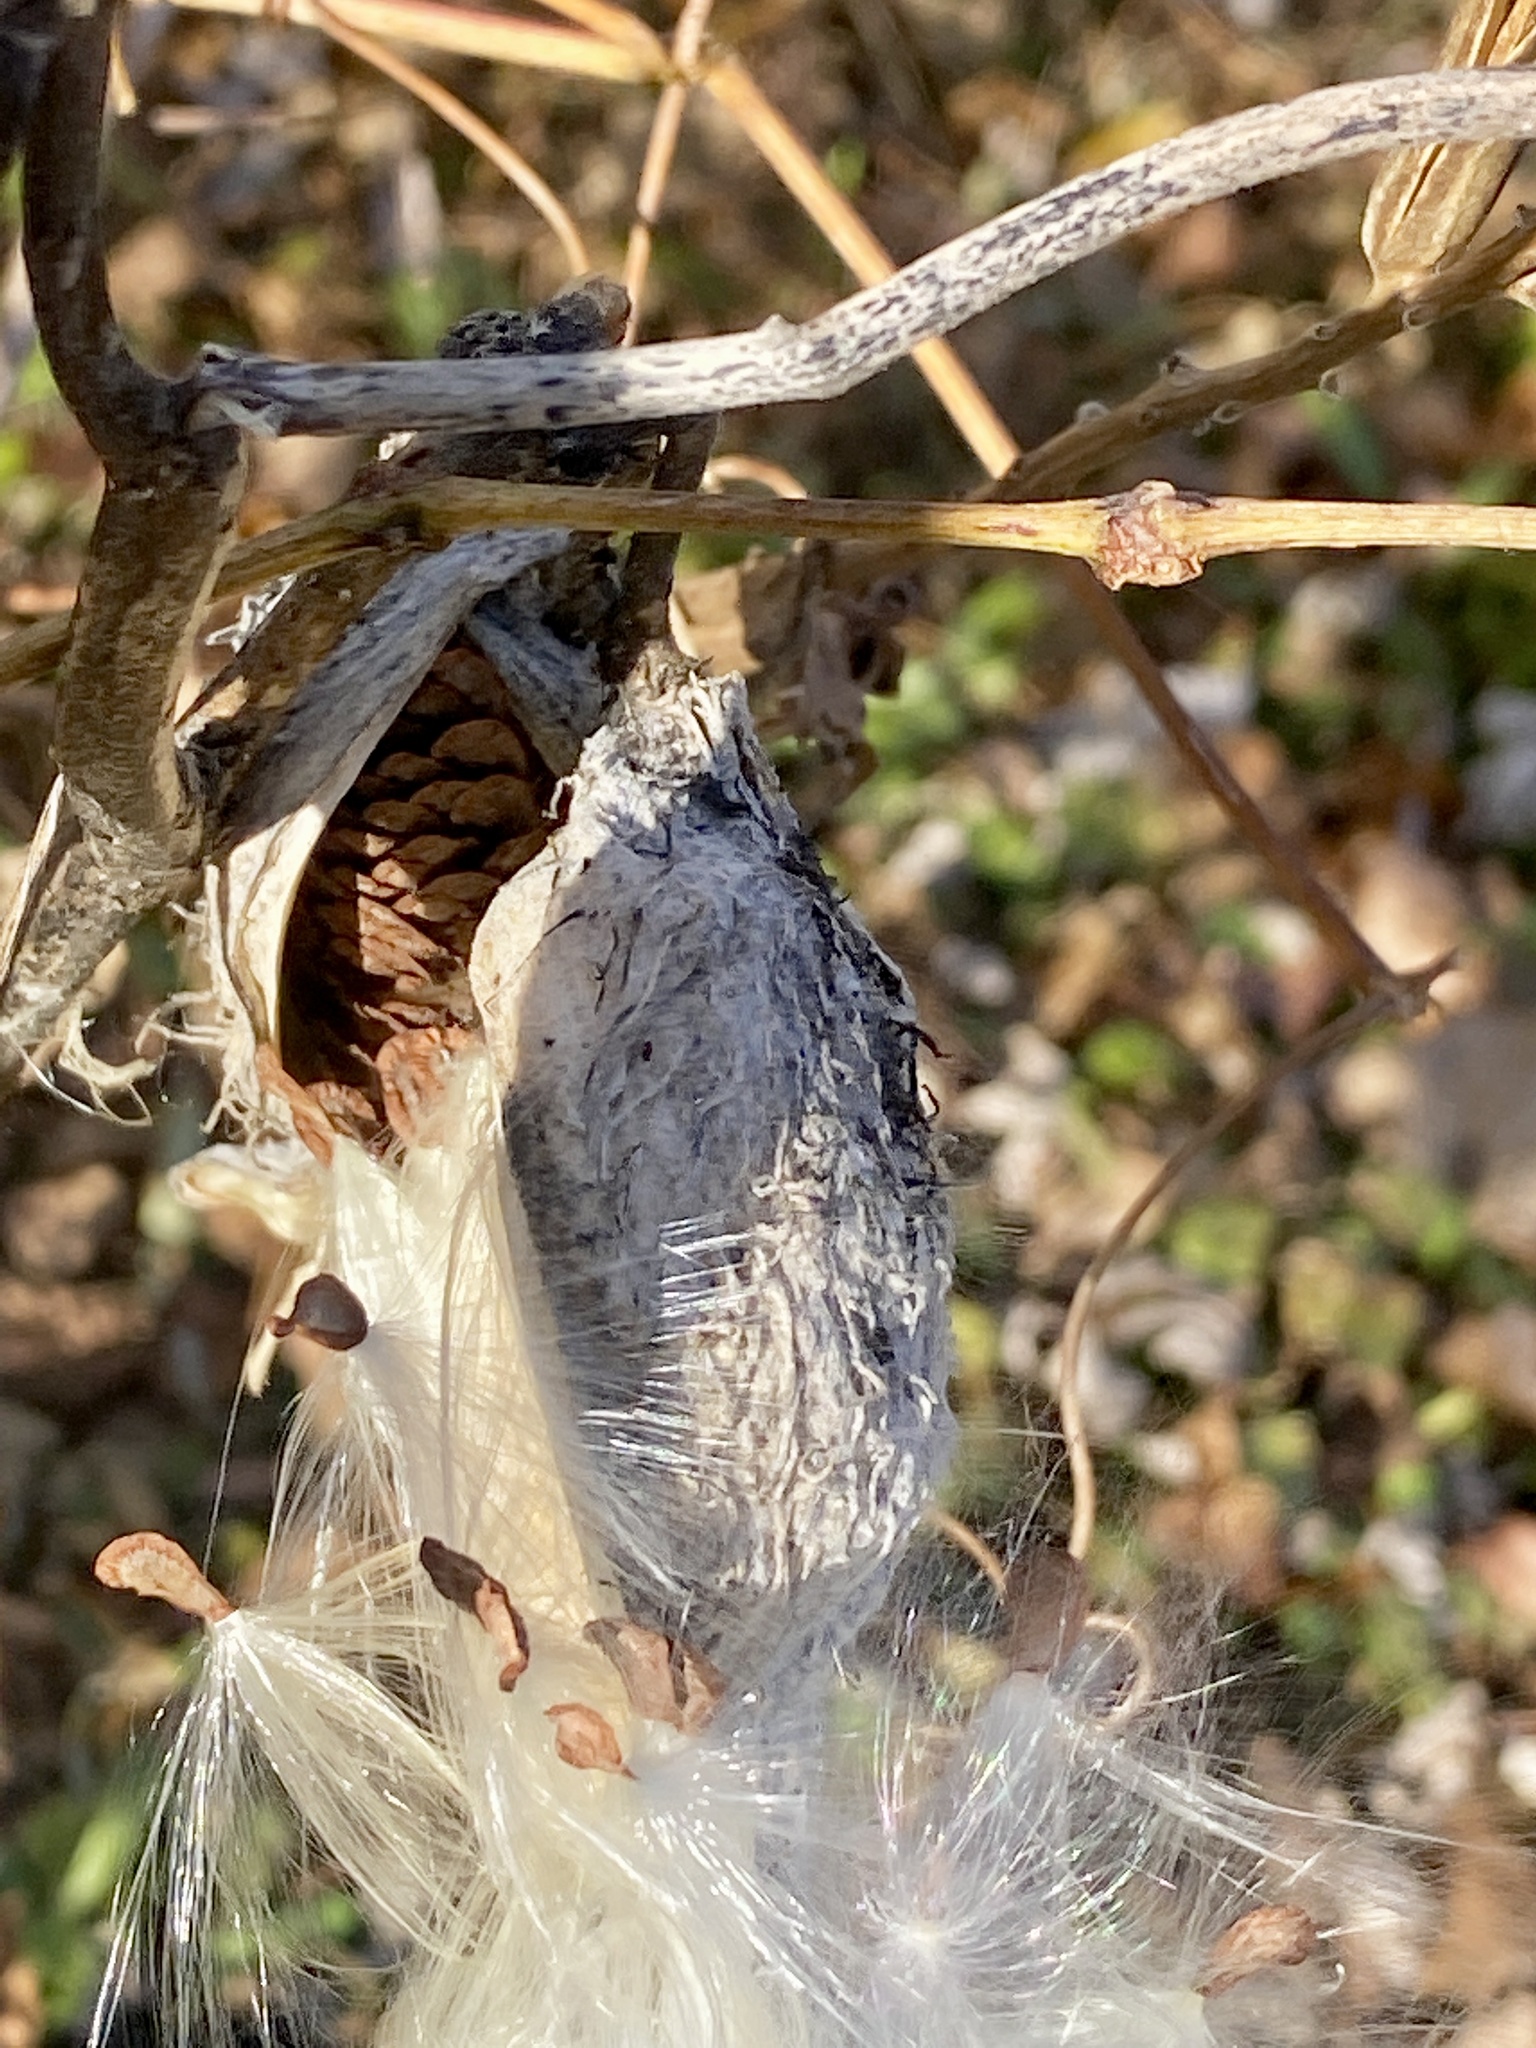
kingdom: Plantae
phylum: Tracheophyta
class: Magnoliopsida
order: Gentianales
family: Apocynaceae
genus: Asclepias
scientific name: Asclepias syriaca
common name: Common milkweed
